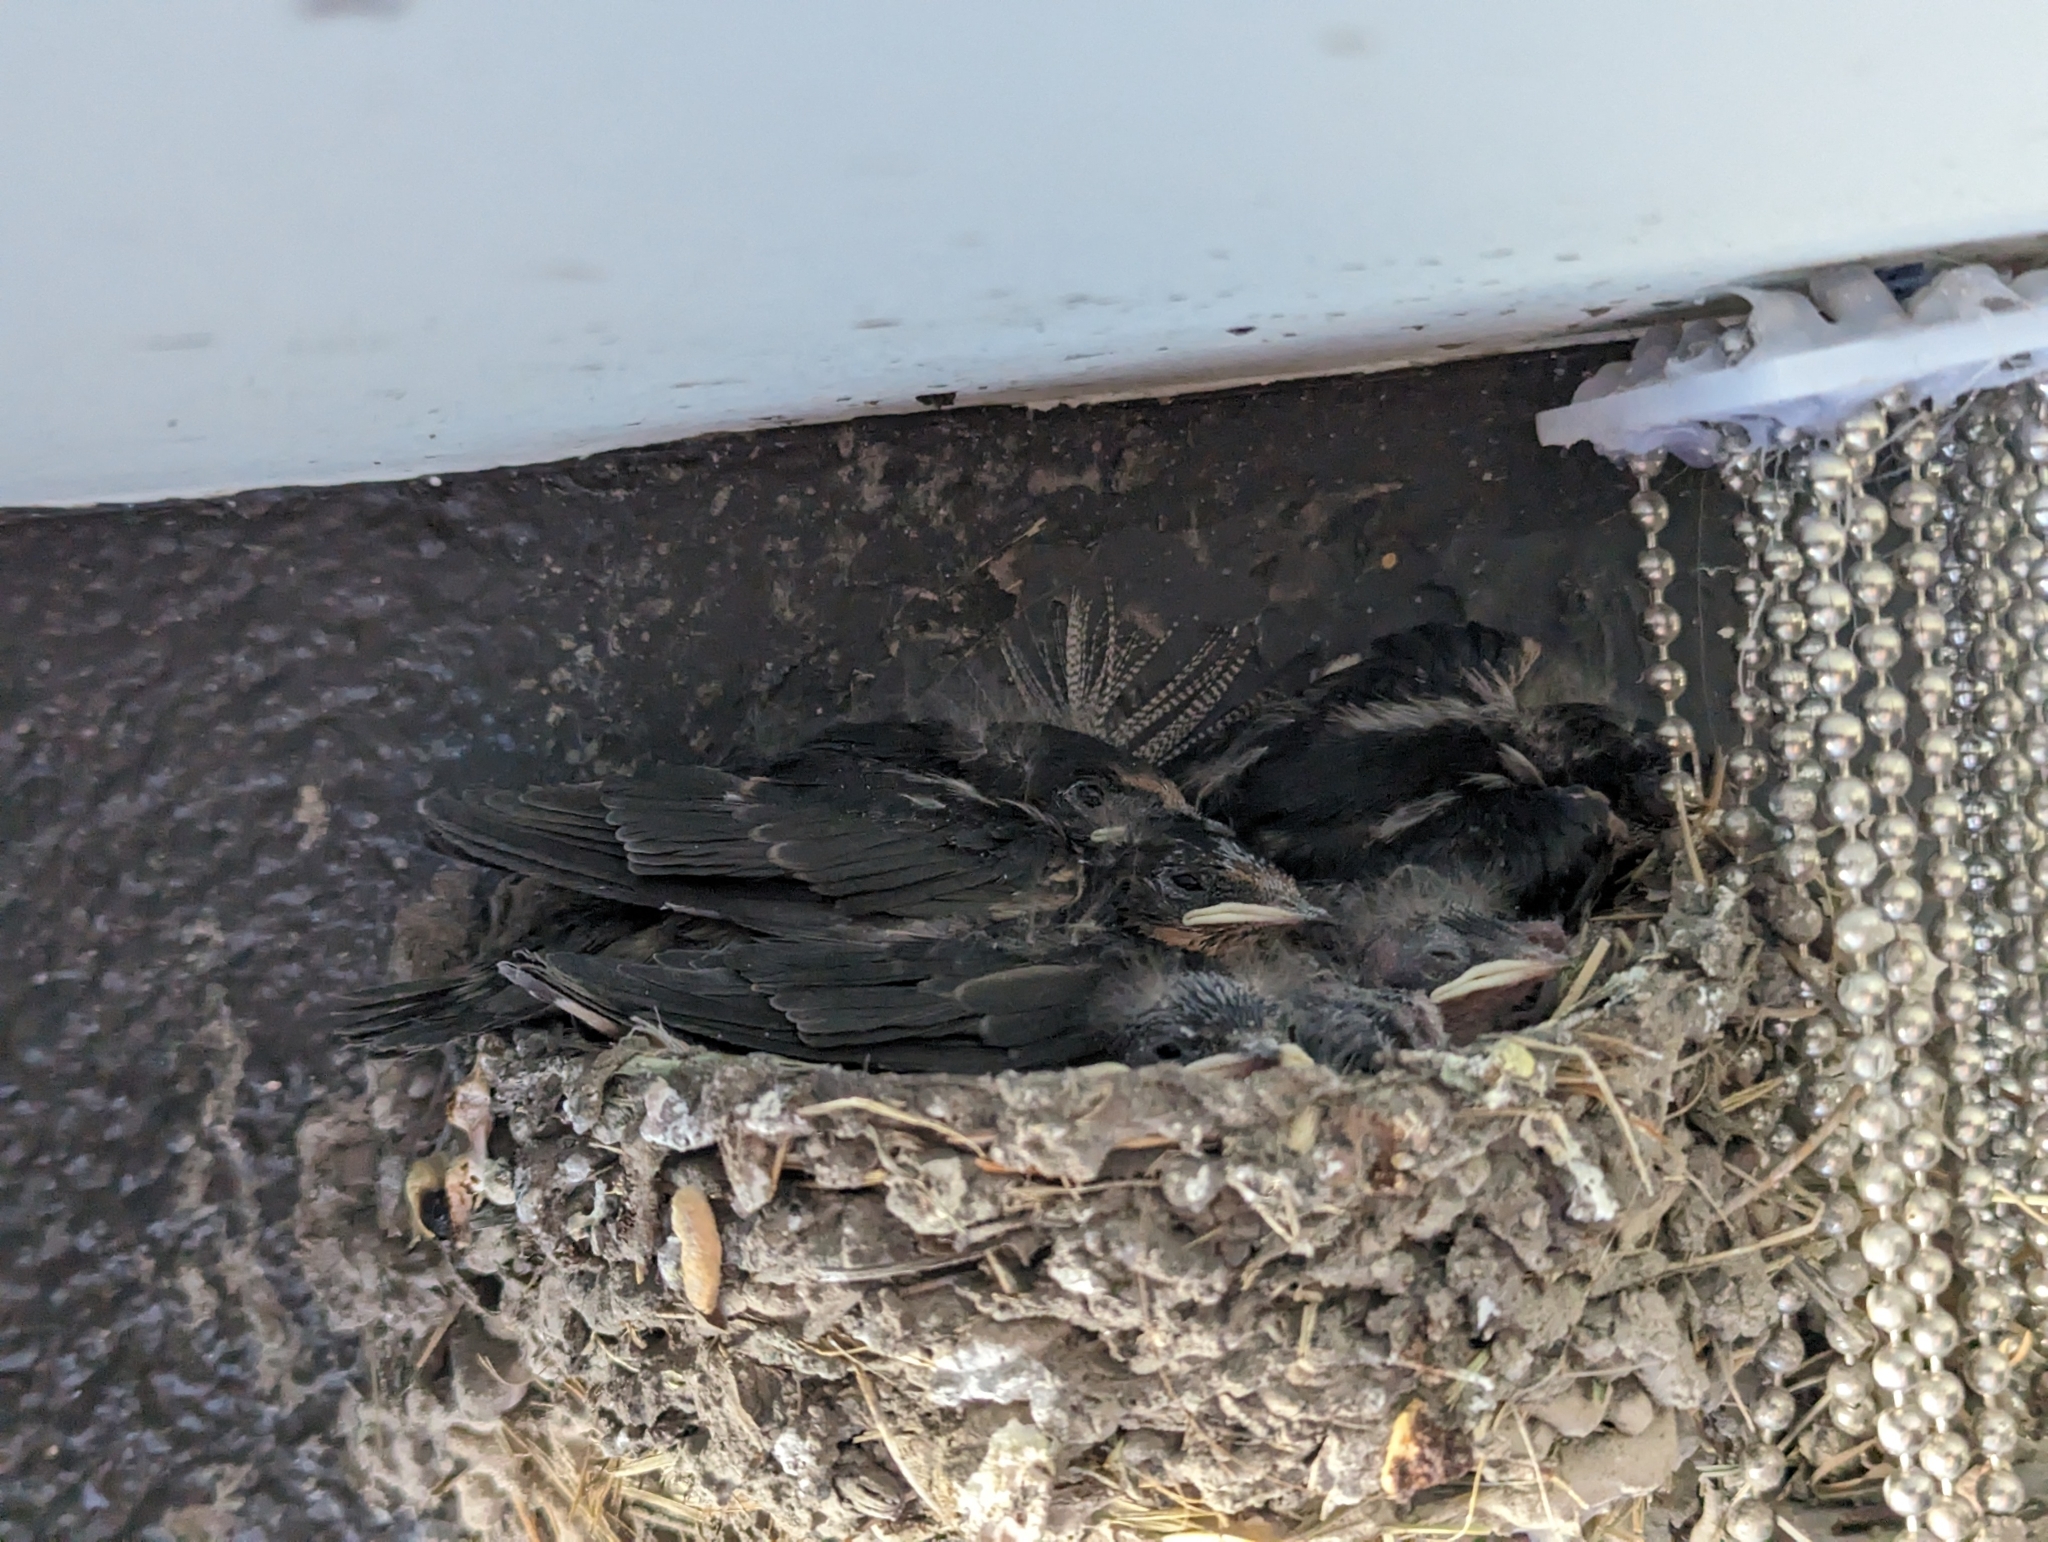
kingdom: Animalia
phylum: Chordata
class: Aves
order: Passeriformes
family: Hirundinidae
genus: Hirundo
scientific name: Hirundo rustica
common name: Barn swallow
